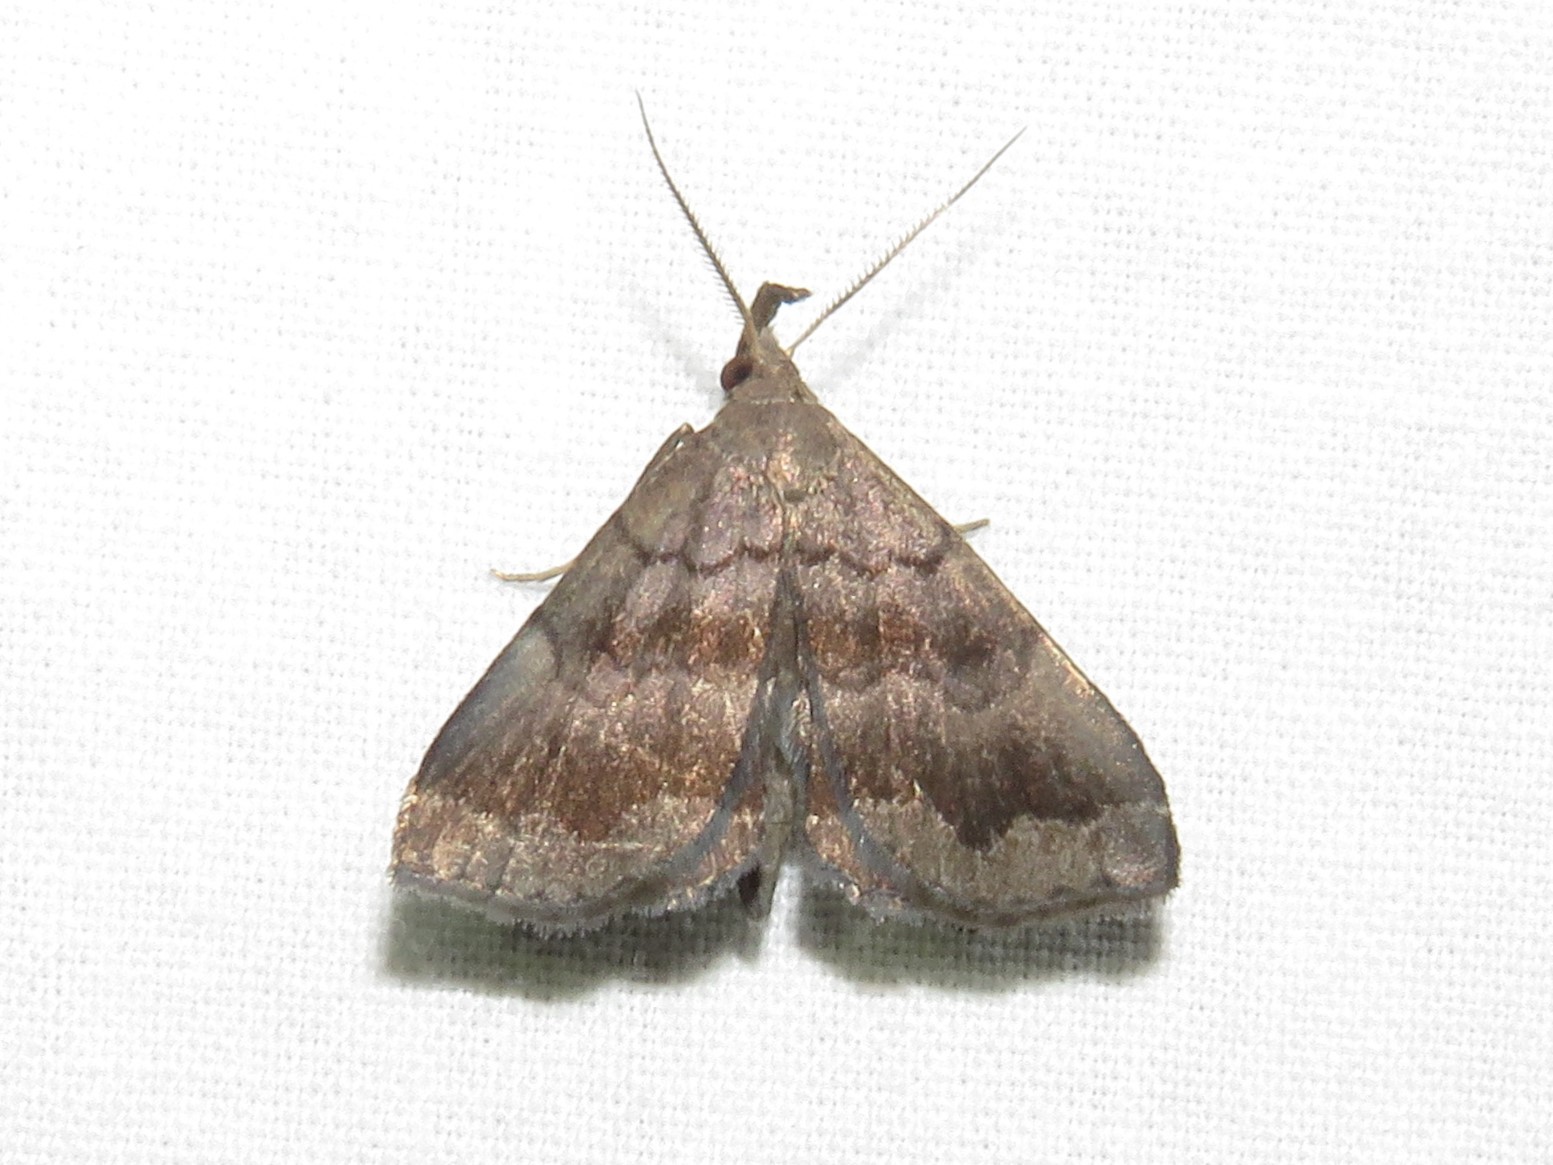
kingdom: Animalia
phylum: Arthropoda
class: Insecta
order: Lepidoptera
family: Erebidae
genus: Phalaenostola
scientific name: Phalaenostola larentioides
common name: Black-banded owlet
